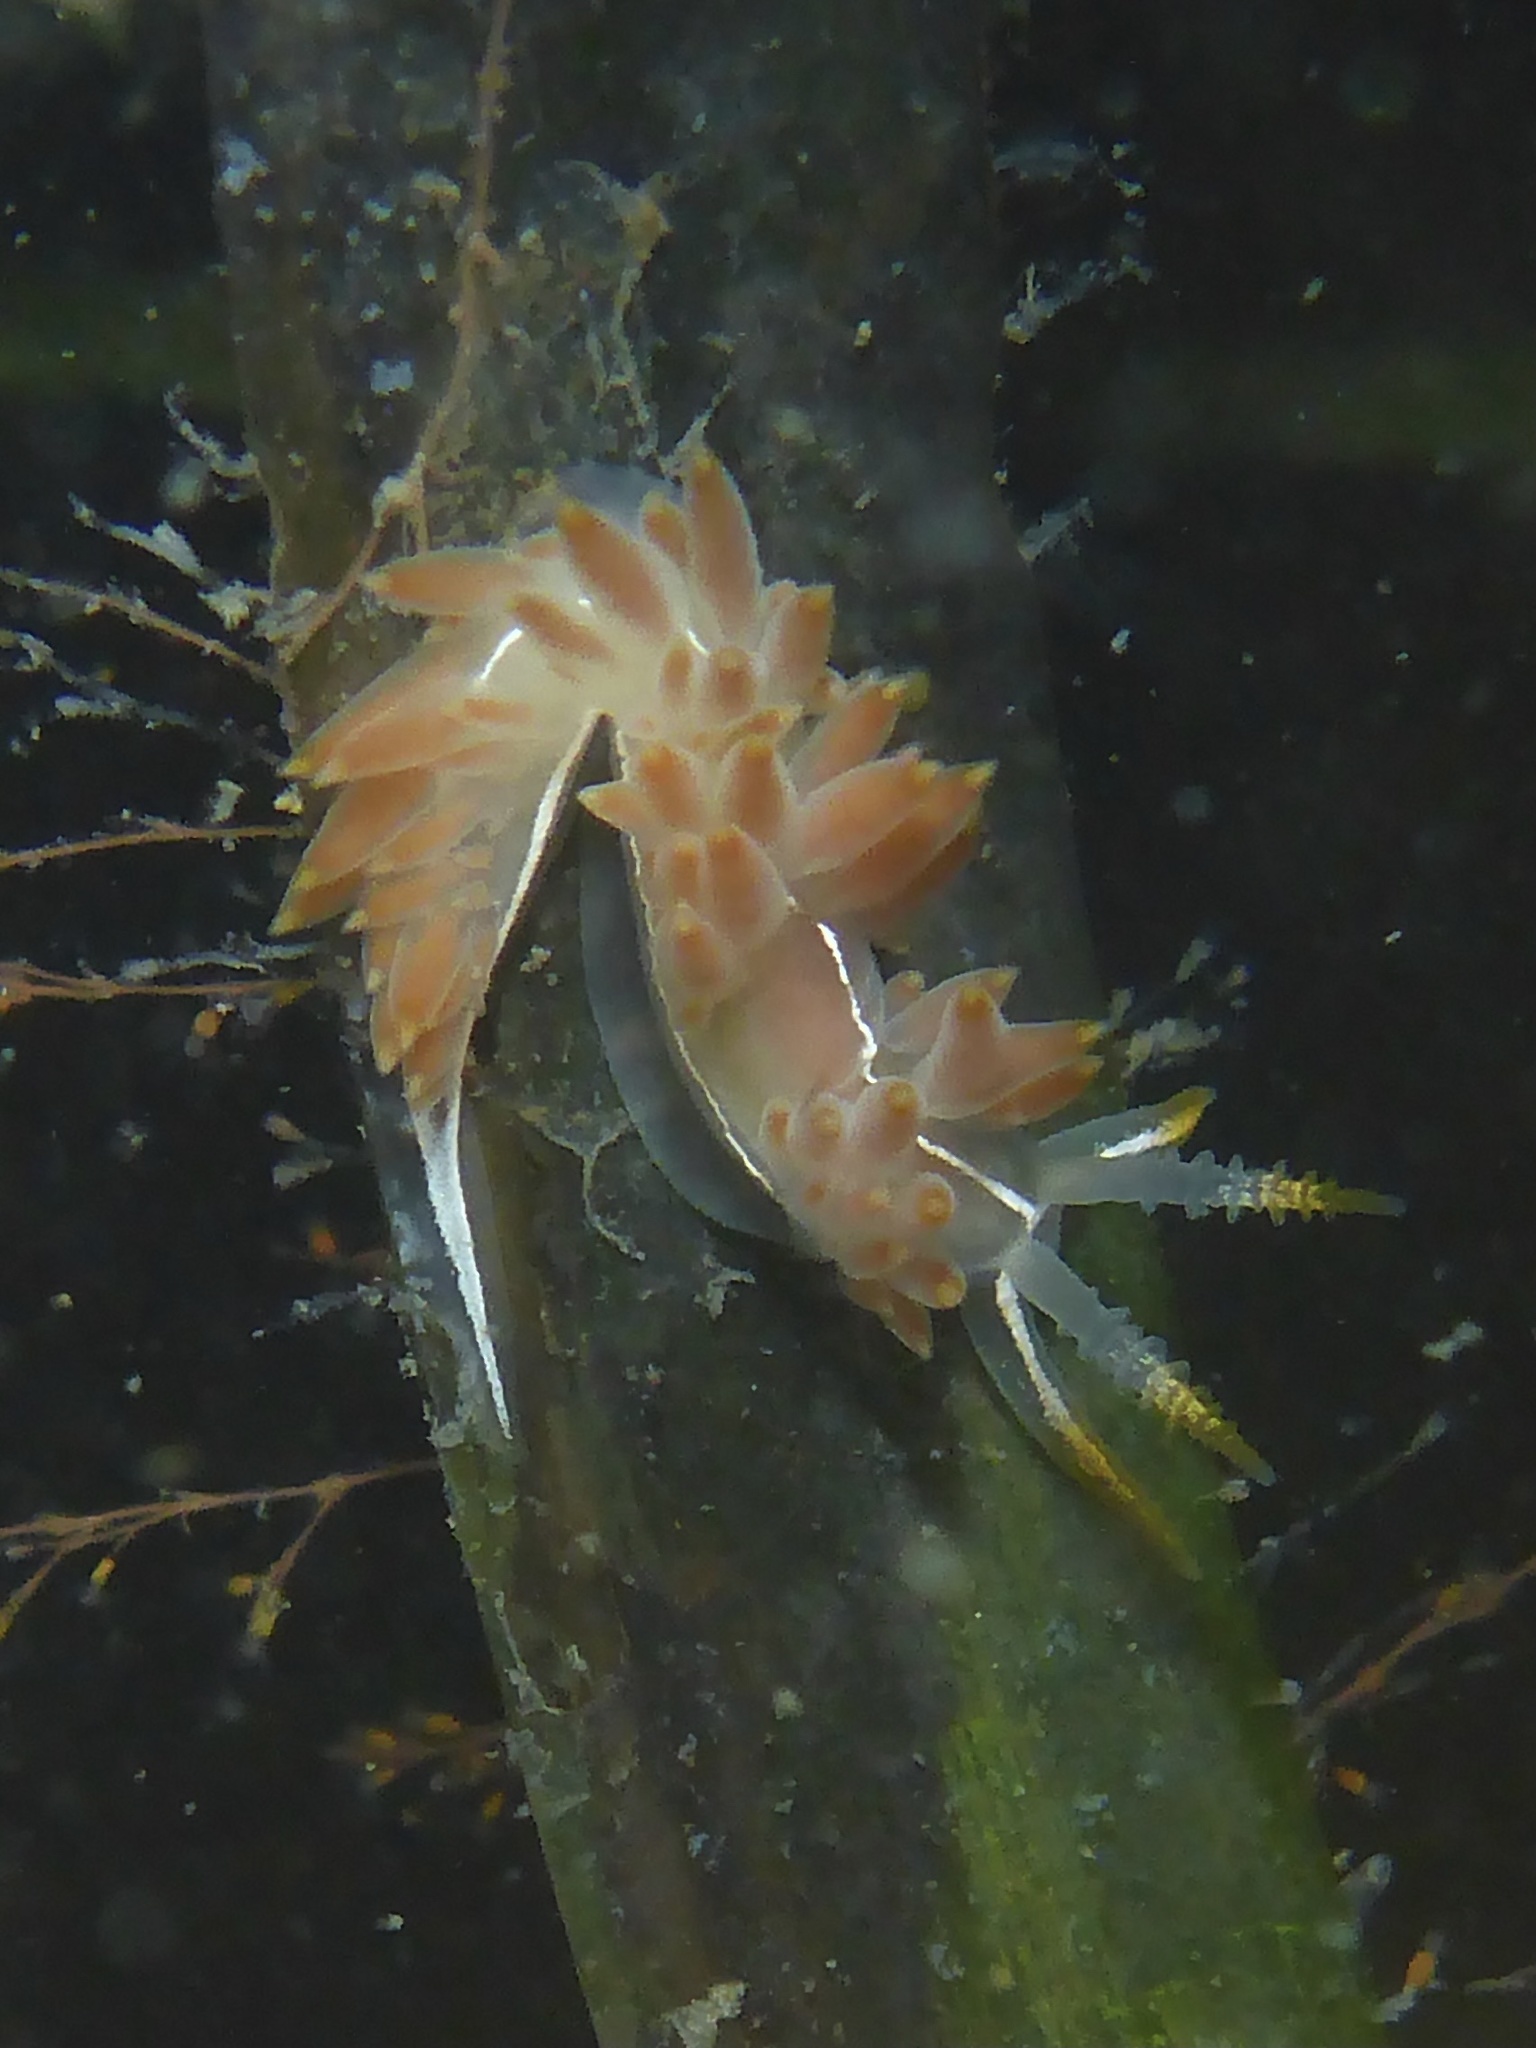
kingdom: Animalia
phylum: Mollusca
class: Gastropoda
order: Nudibranchia
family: Coryphellidae
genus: Coryphella
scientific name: Coryphella trilineata
